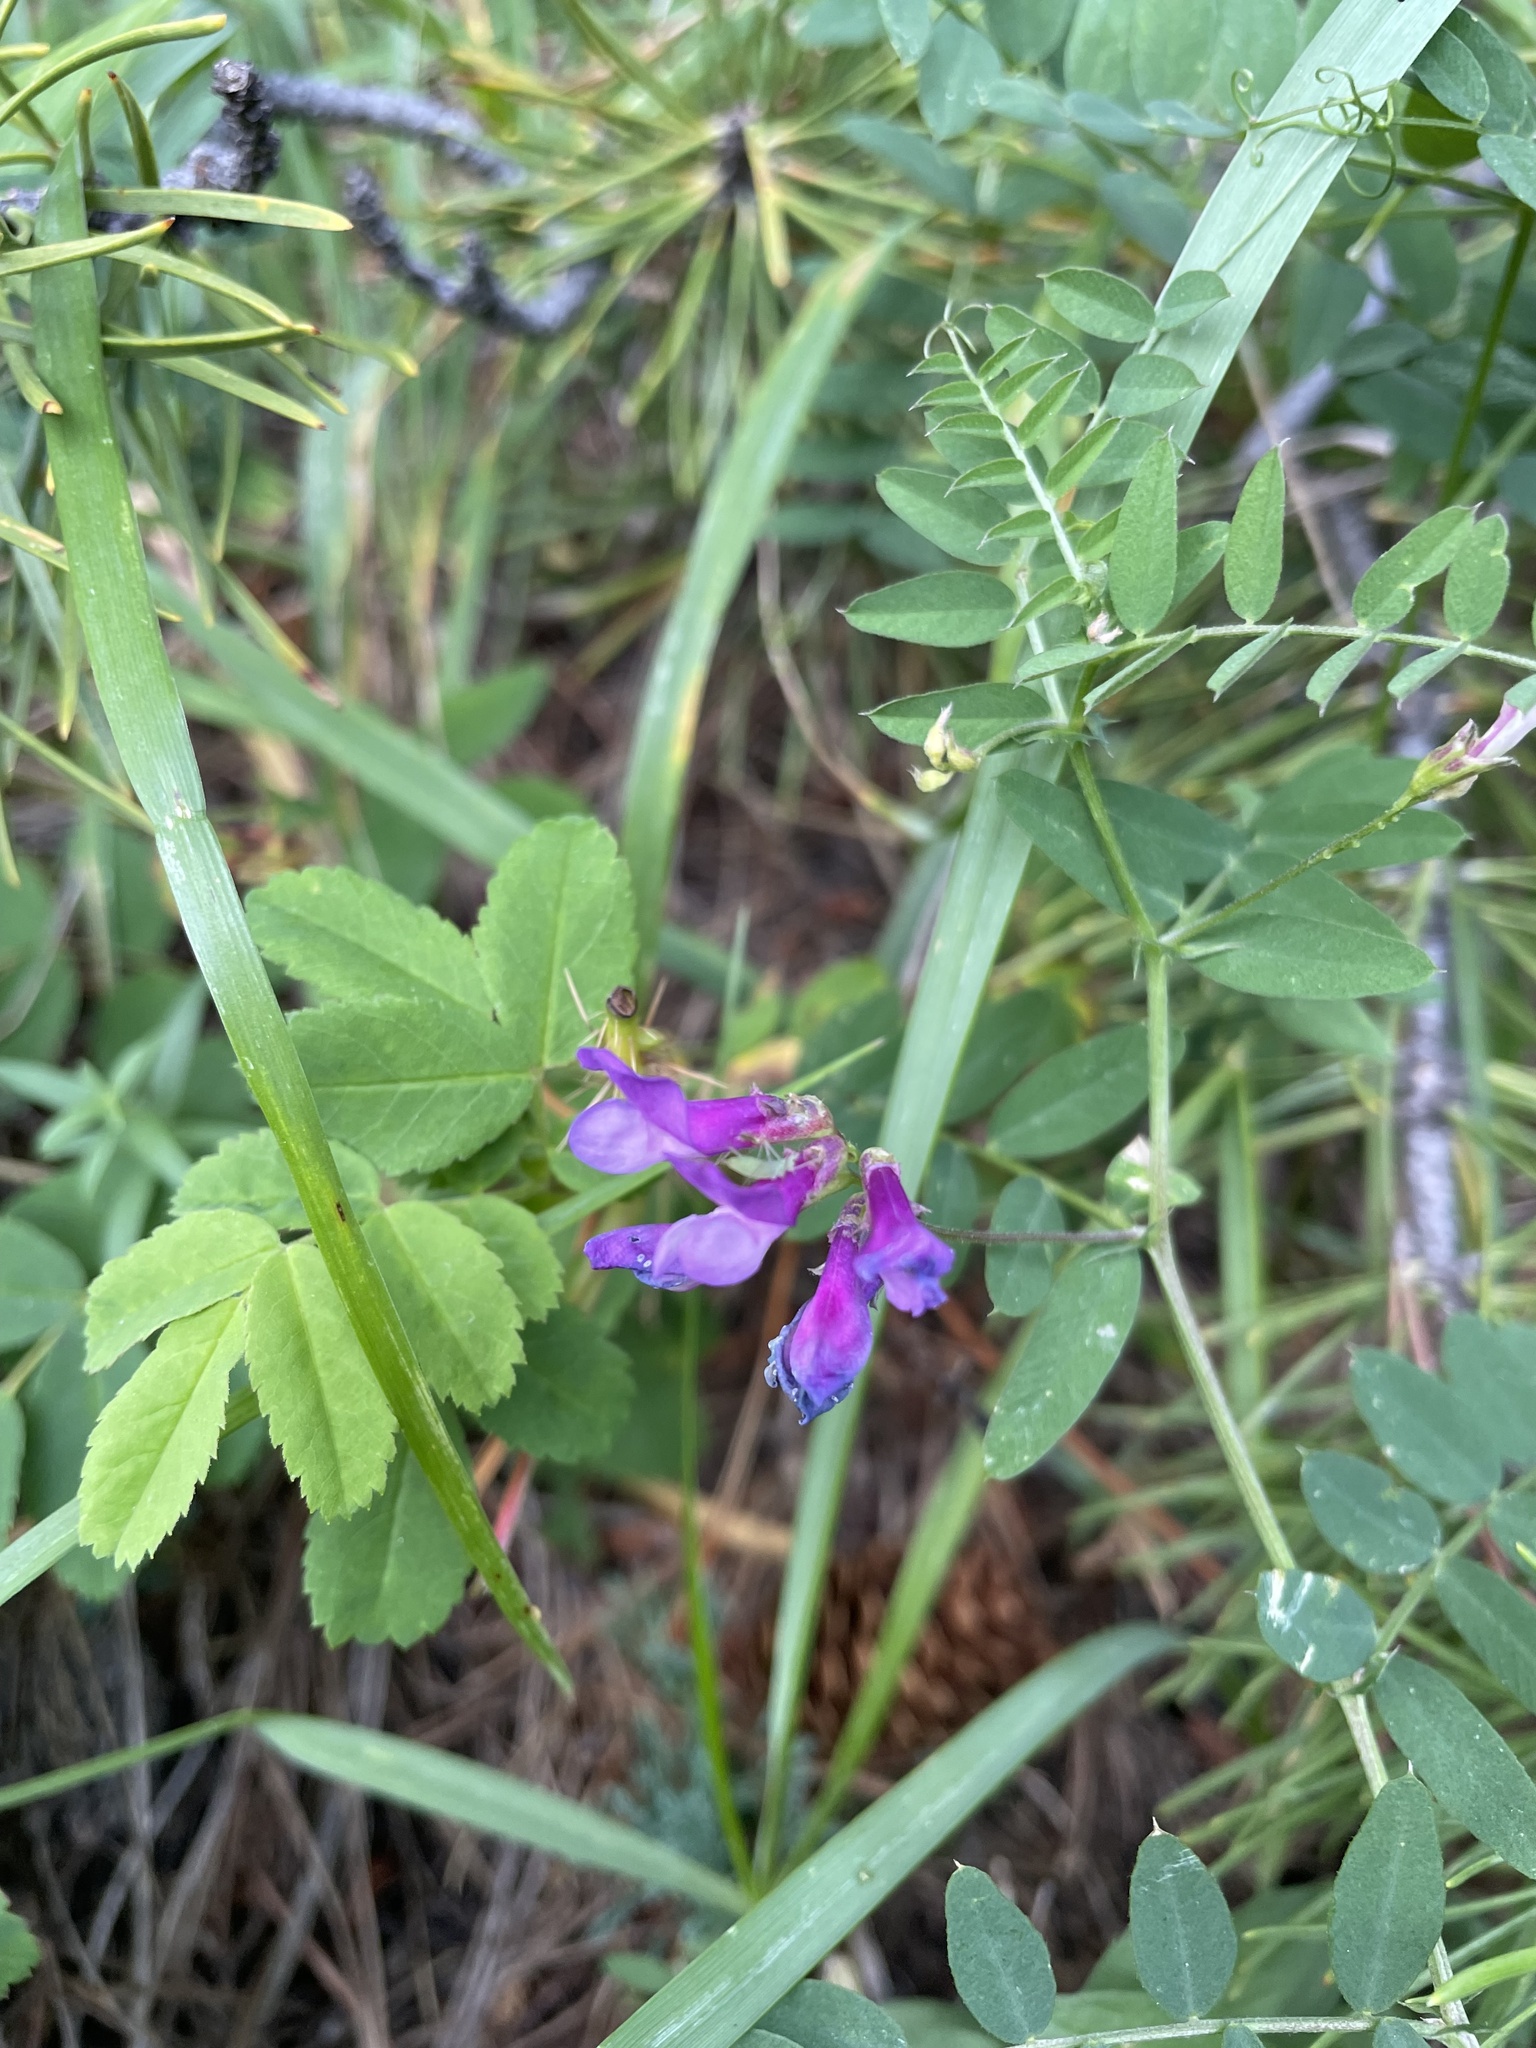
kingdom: Plantae
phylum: Tracheophyta
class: Magnoliopsida
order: Fabales
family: Fabaceae
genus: Vicia
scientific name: Vicia americana
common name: American vetch
